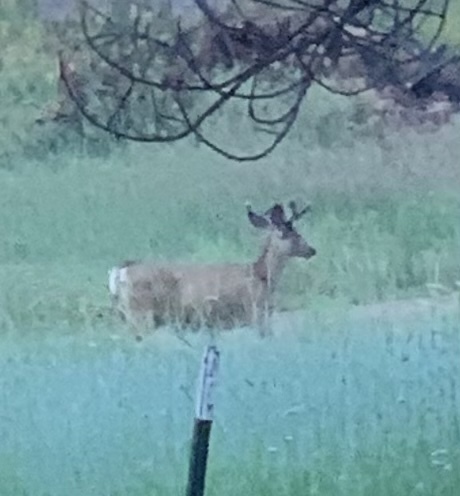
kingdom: Animalia
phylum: Chordata
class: Mammalia
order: Artiodactyla
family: Cervidae
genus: Odocoileus
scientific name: Odocoileus hemionus
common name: Mule deer
